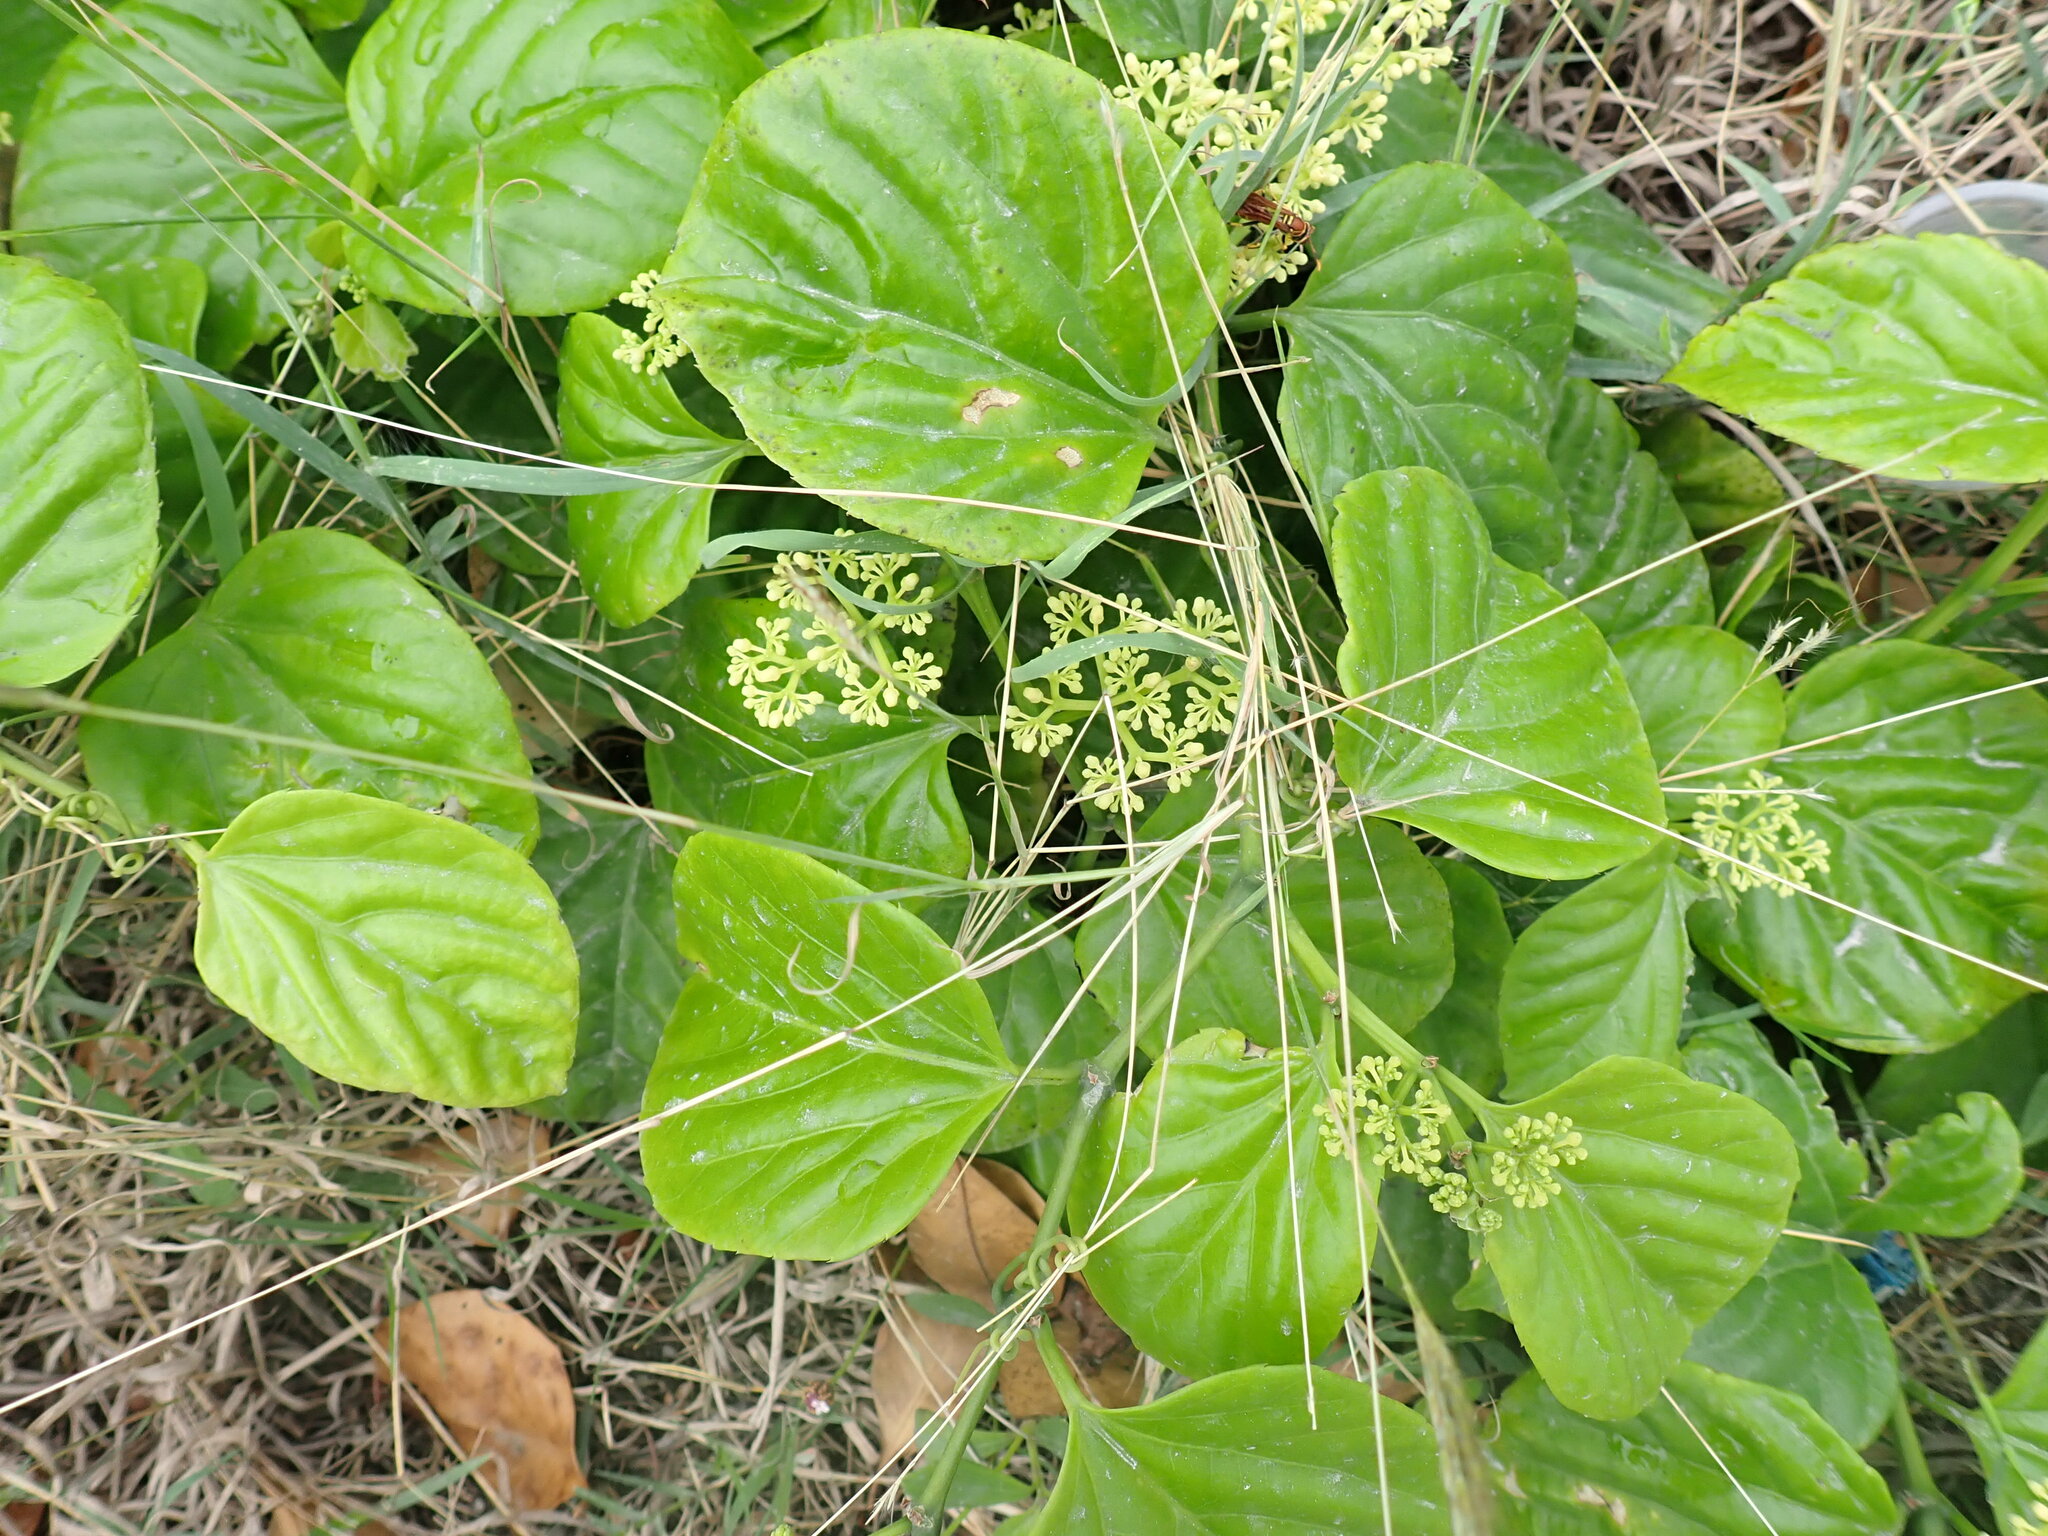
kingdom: Plantae
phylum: Tracheophyta
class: Magnoliopsida
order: Vitales
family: Vitaceae
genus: Cissus
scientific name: Cissus verticillata
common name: Princess vine
